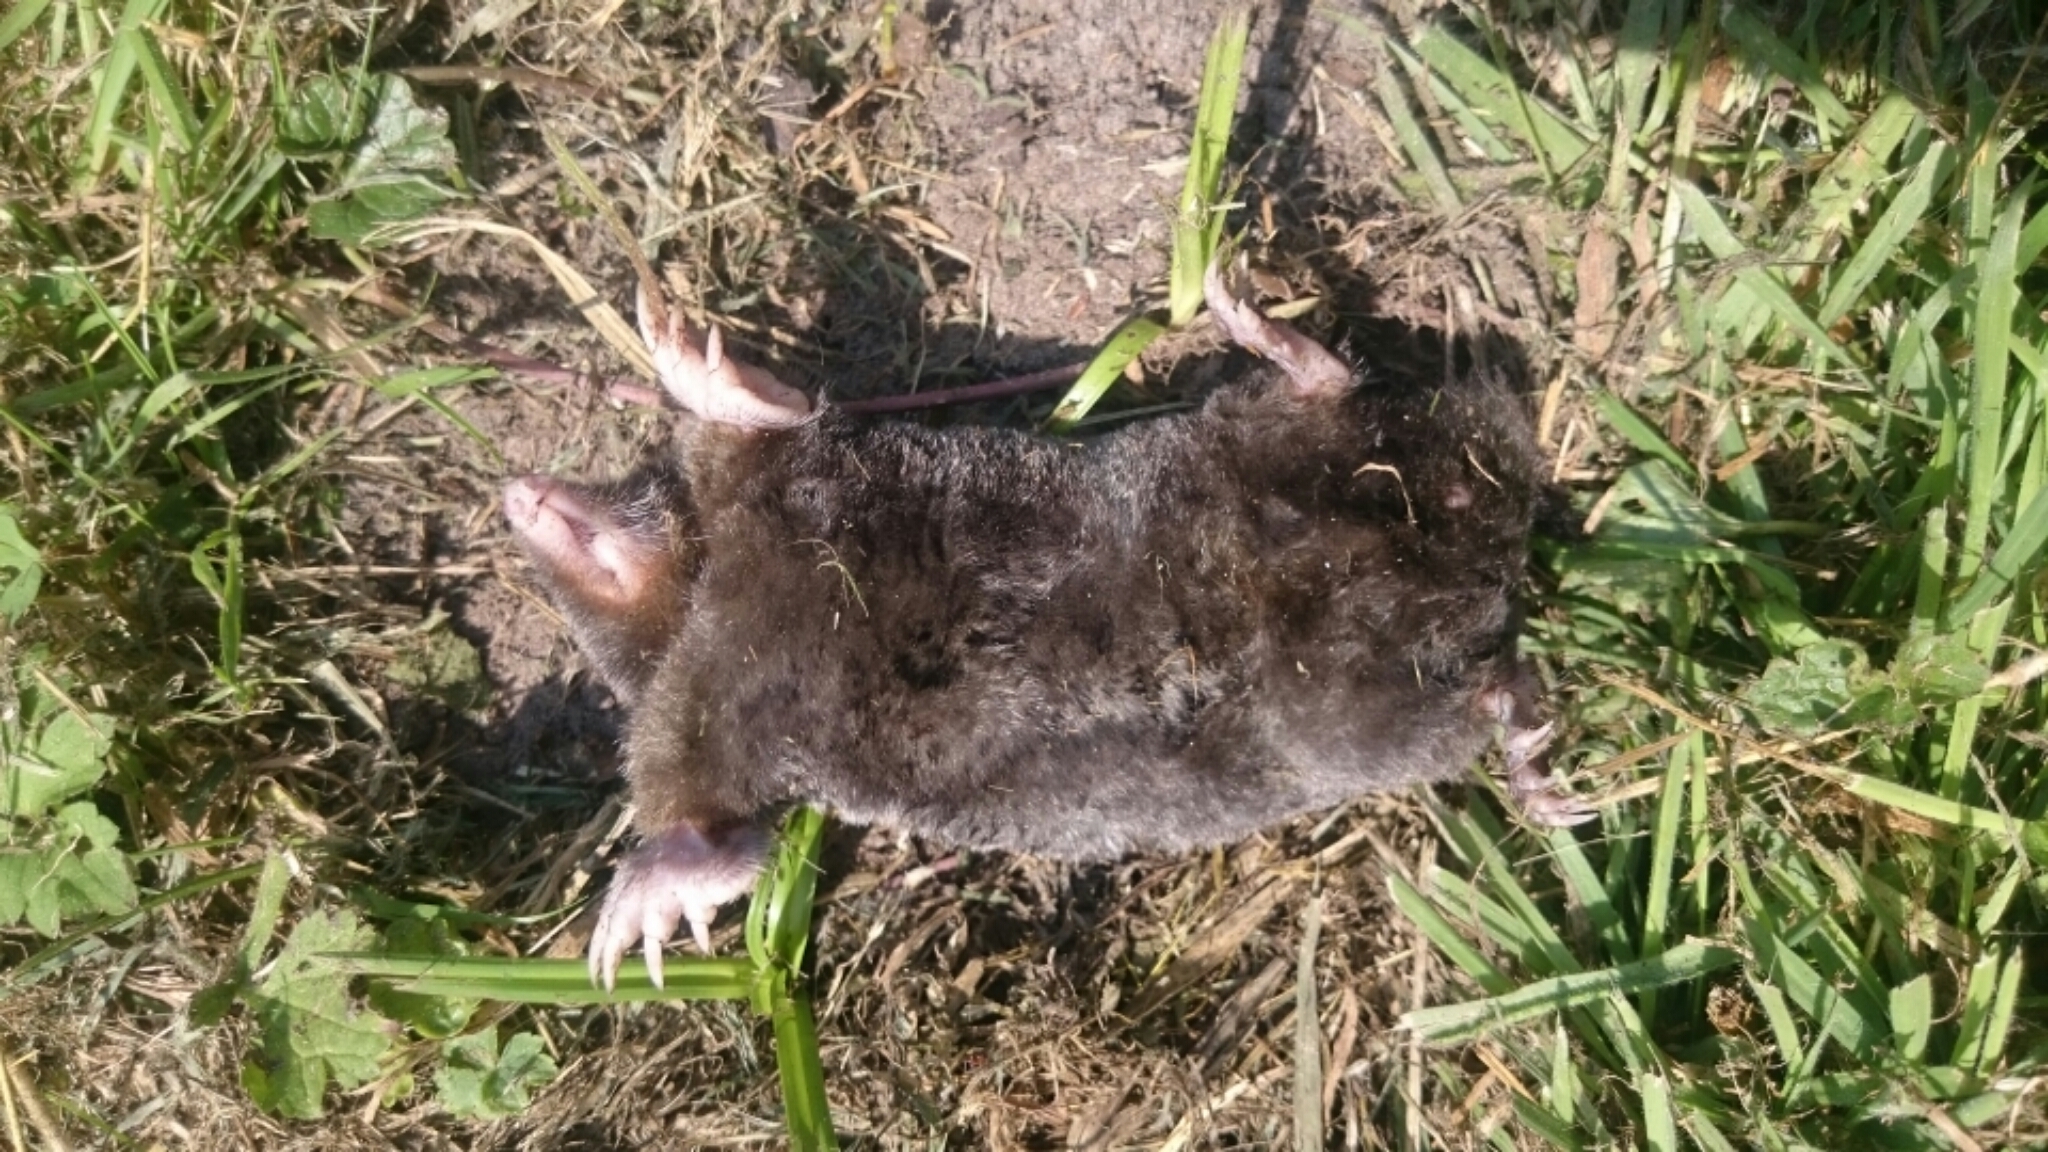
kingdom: Animalia
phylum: Chordata
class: Mammalia
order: Soricomorpha
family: Talpidae
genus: Talpa
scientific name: Talpa europaea
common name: European mole
